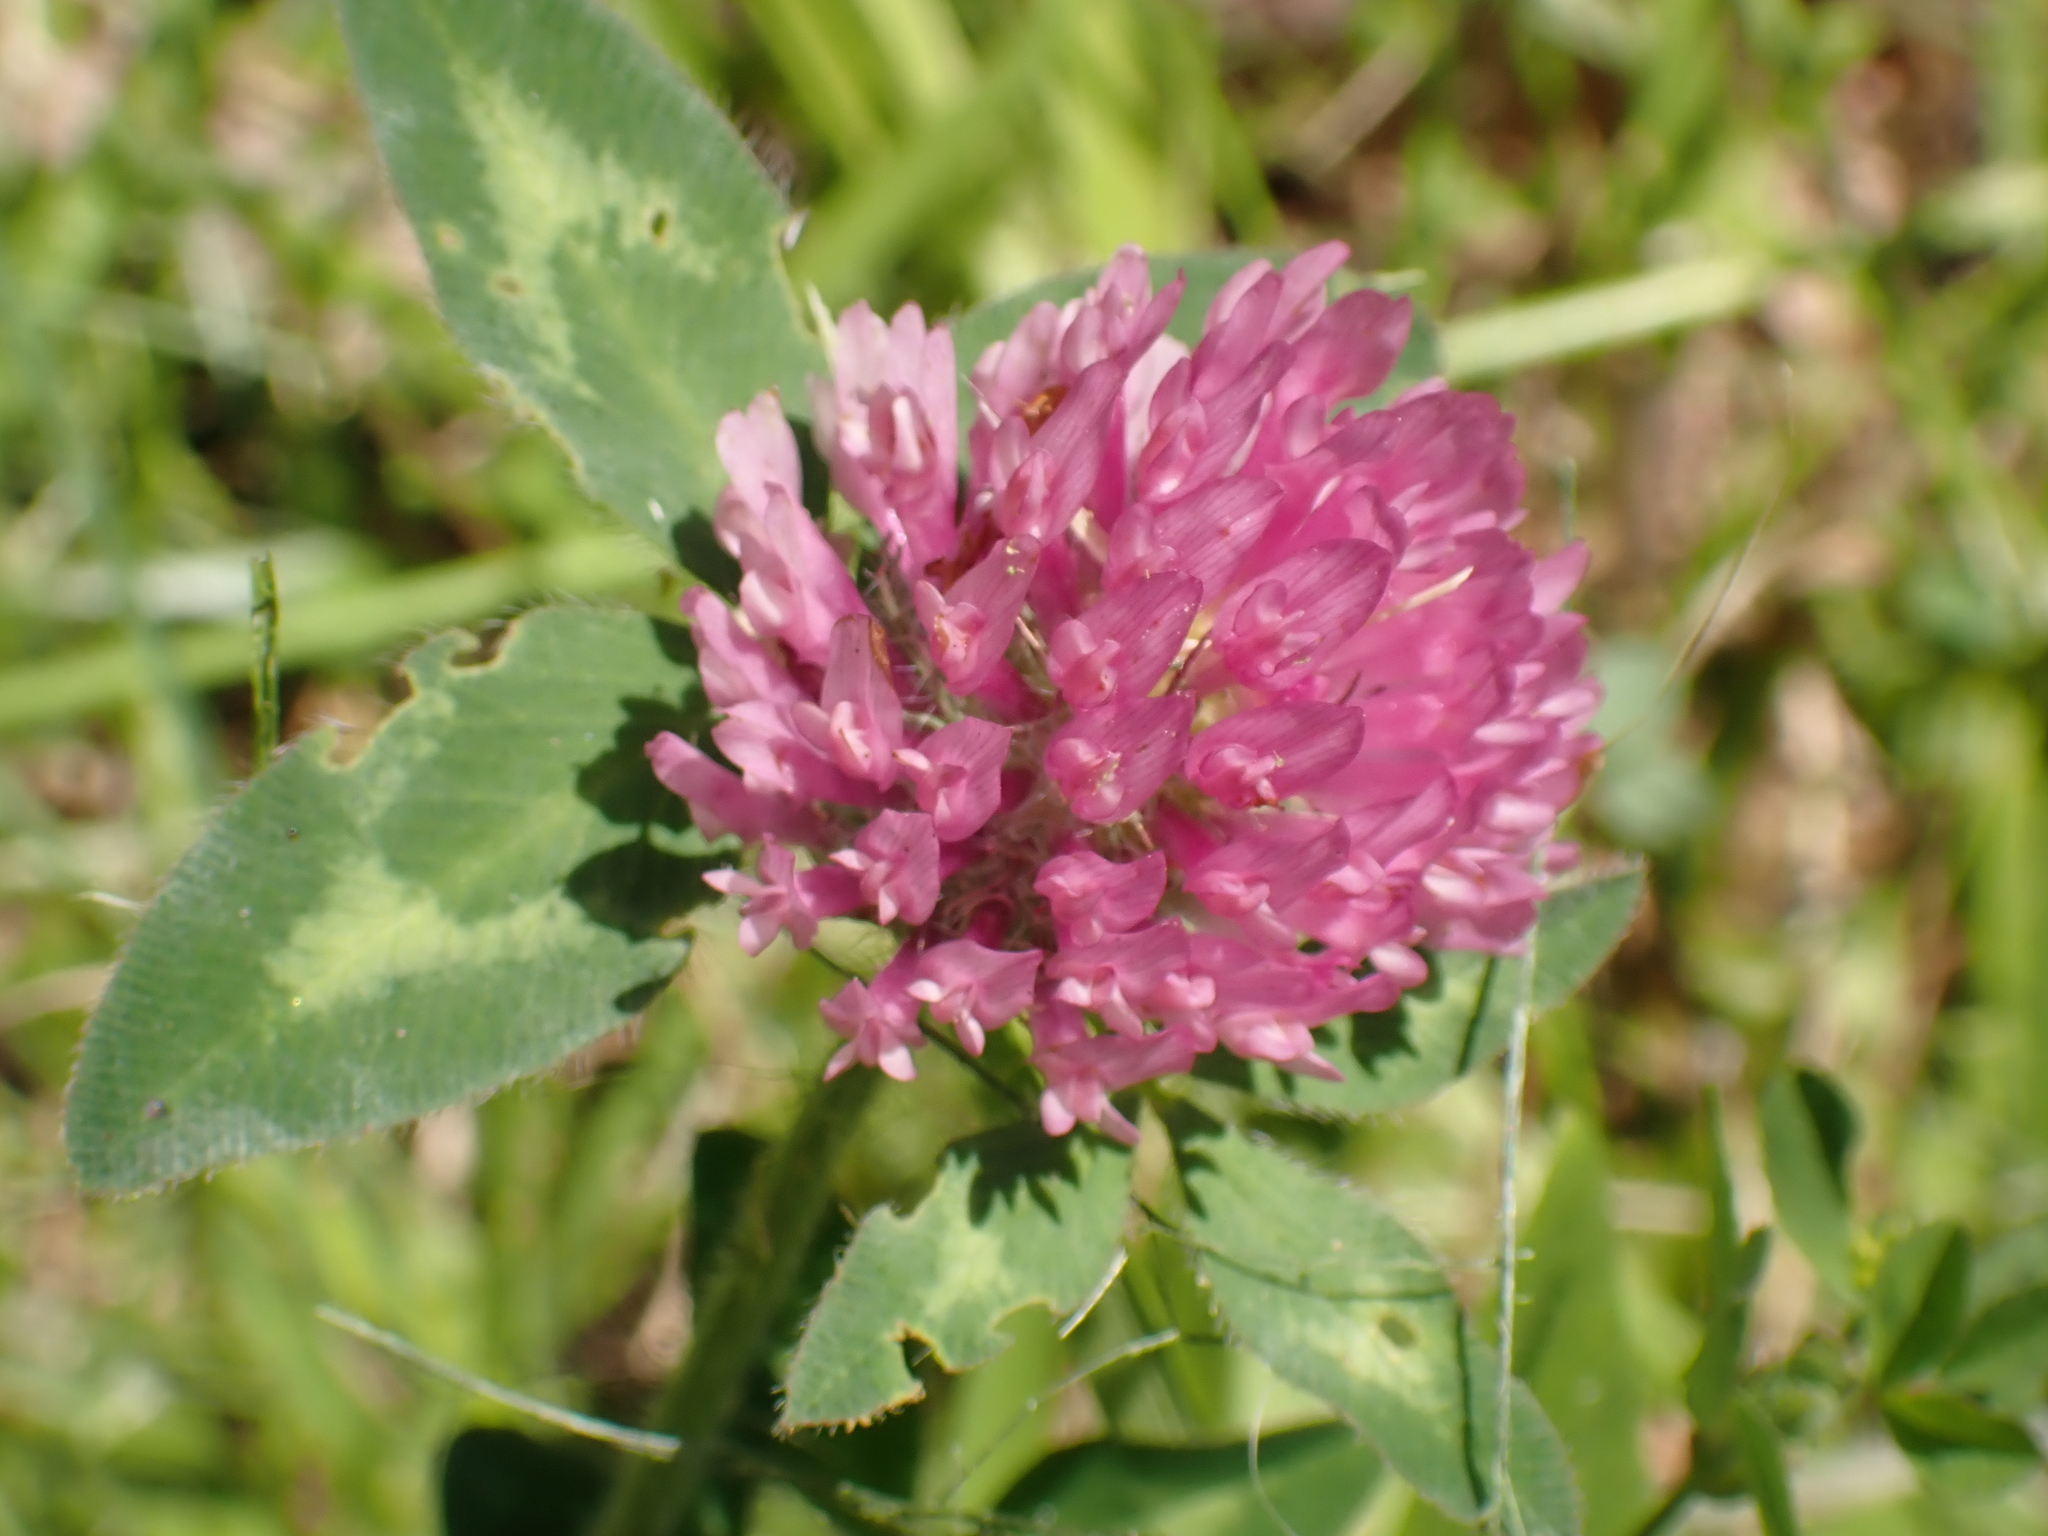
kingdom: Plantae
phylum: Tracheophyta
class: Magnoliopsida
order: Fabales
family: Fabaceae
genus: Trifolium
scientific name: Trifolium pratense
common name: Red clover
